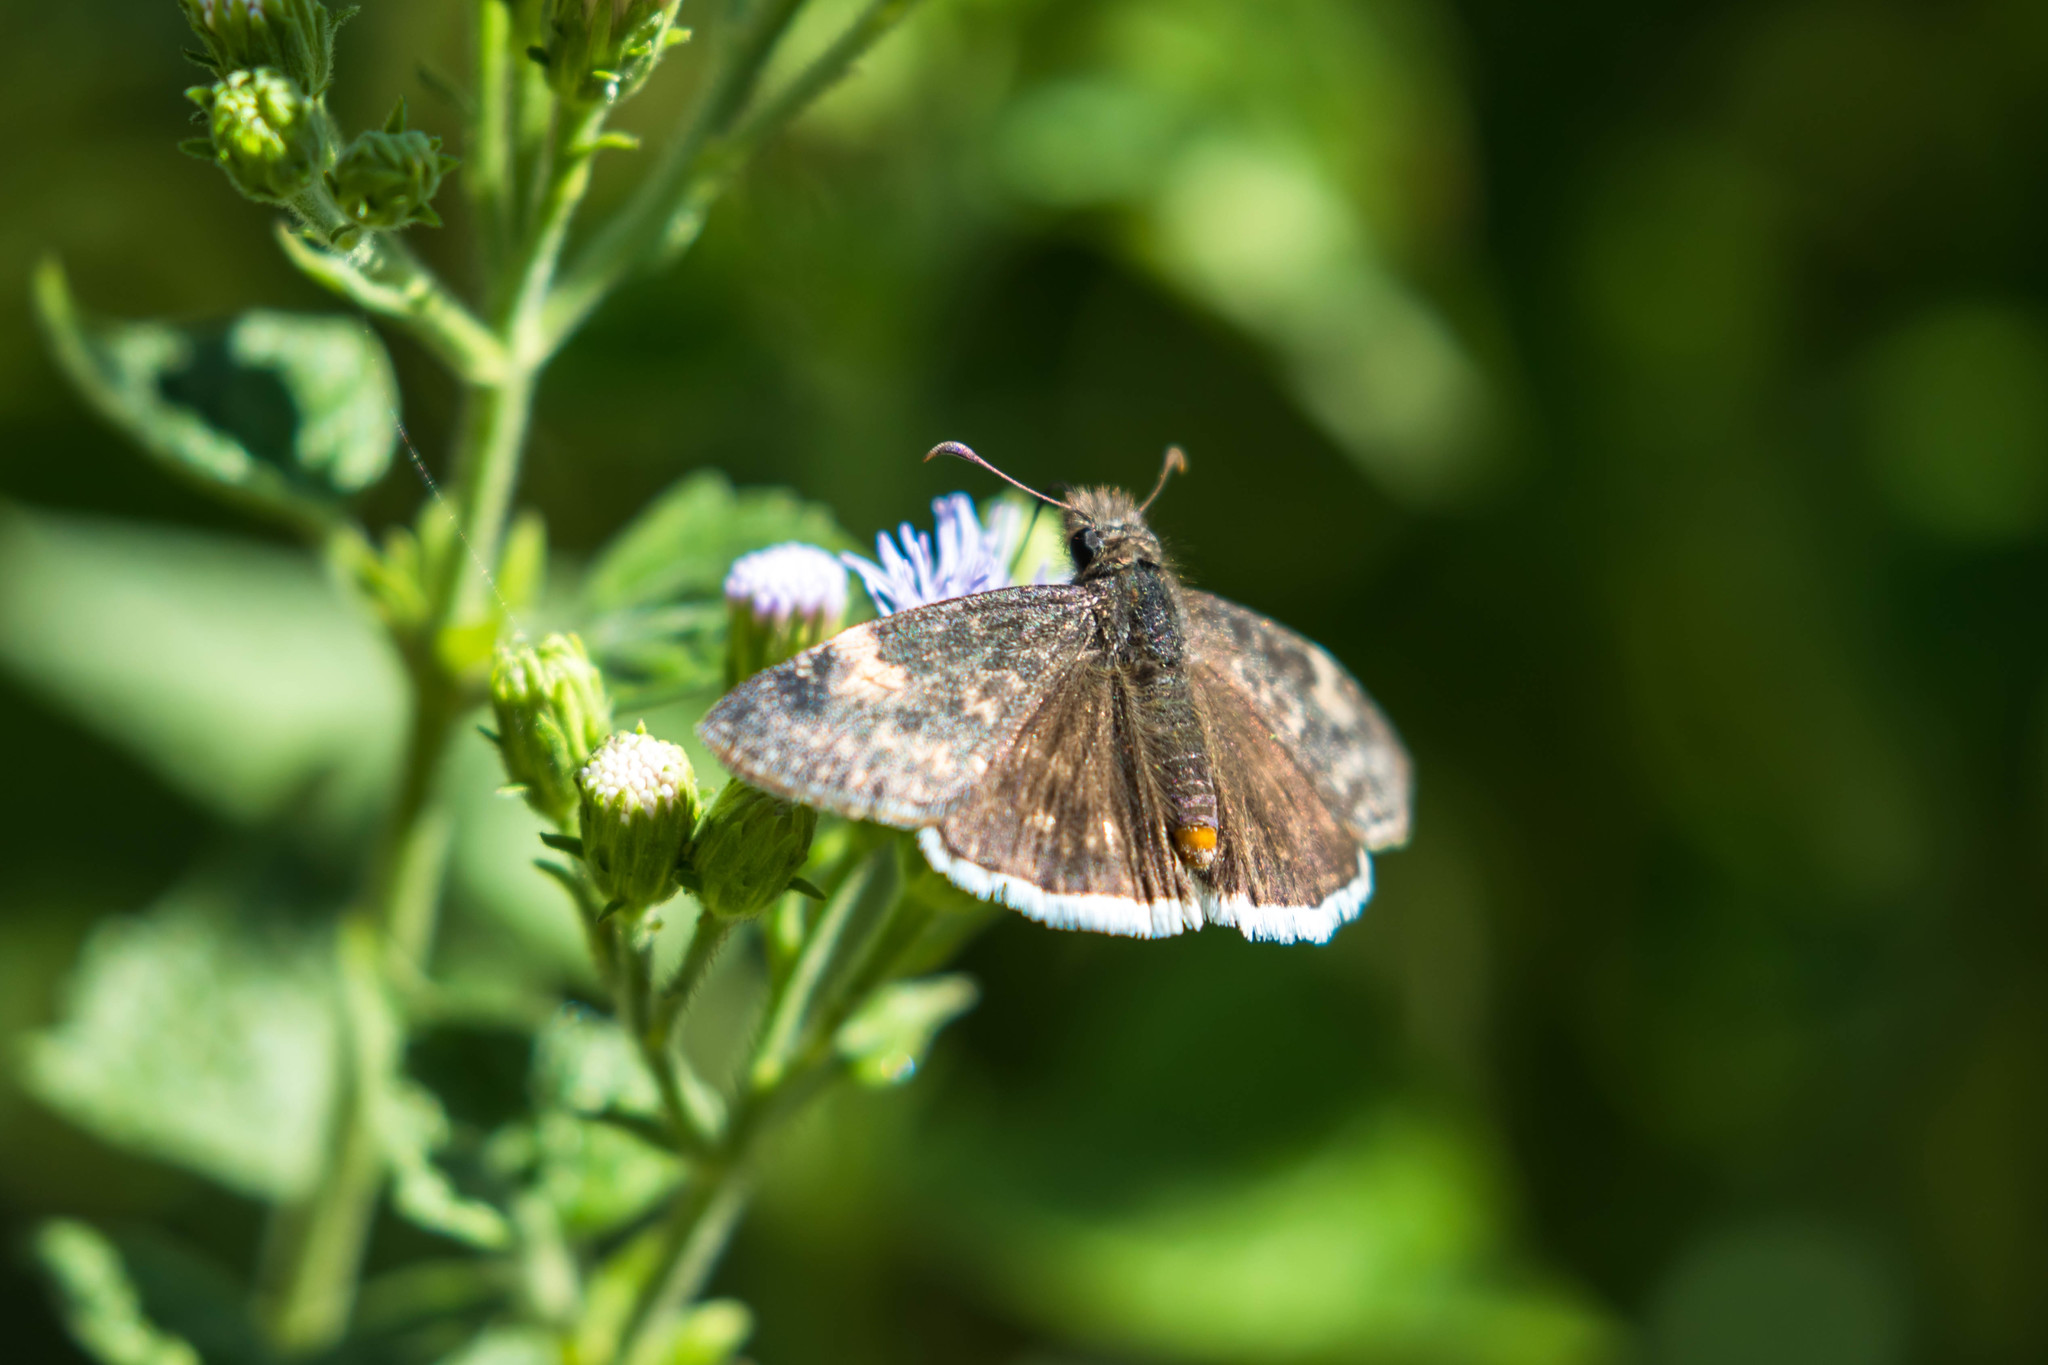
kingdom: Animalia
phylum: Arthropoda
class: Insecta
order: Lepidoptera
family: Hesperiidae
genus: Erynnis
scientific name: Erynnis funeralis
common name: Funereal duskywing
